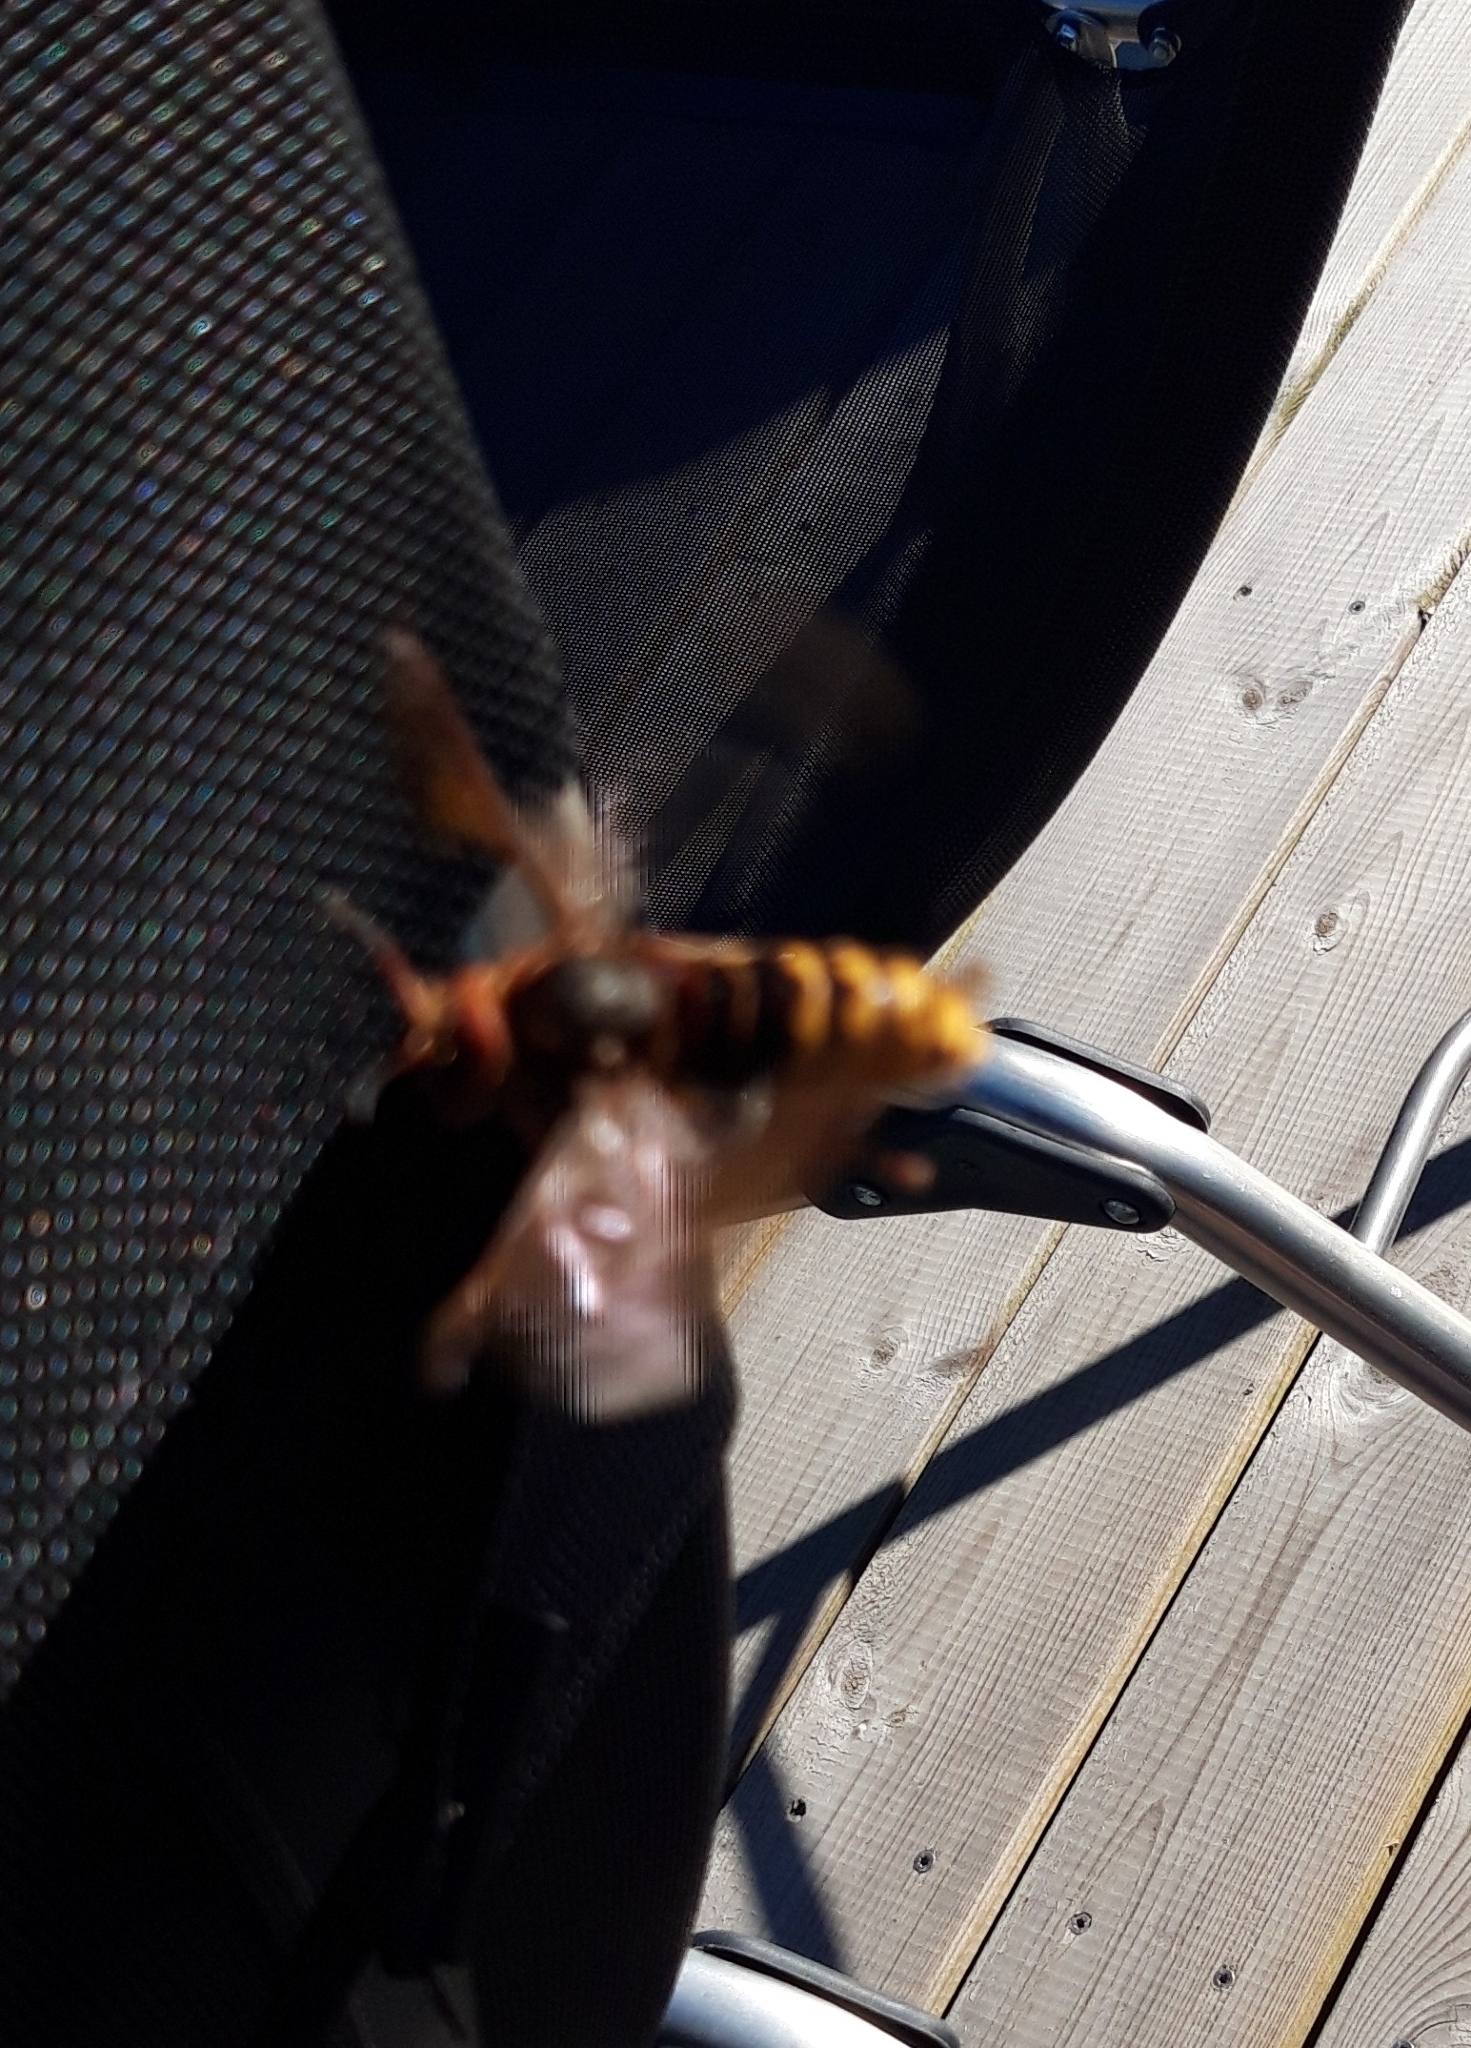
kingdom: Animalia
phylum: Arthropoda
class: Insecta
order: Hymenoptera
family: Vespidae
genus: Vespa
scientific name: Vespa crabro
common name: Hornet
